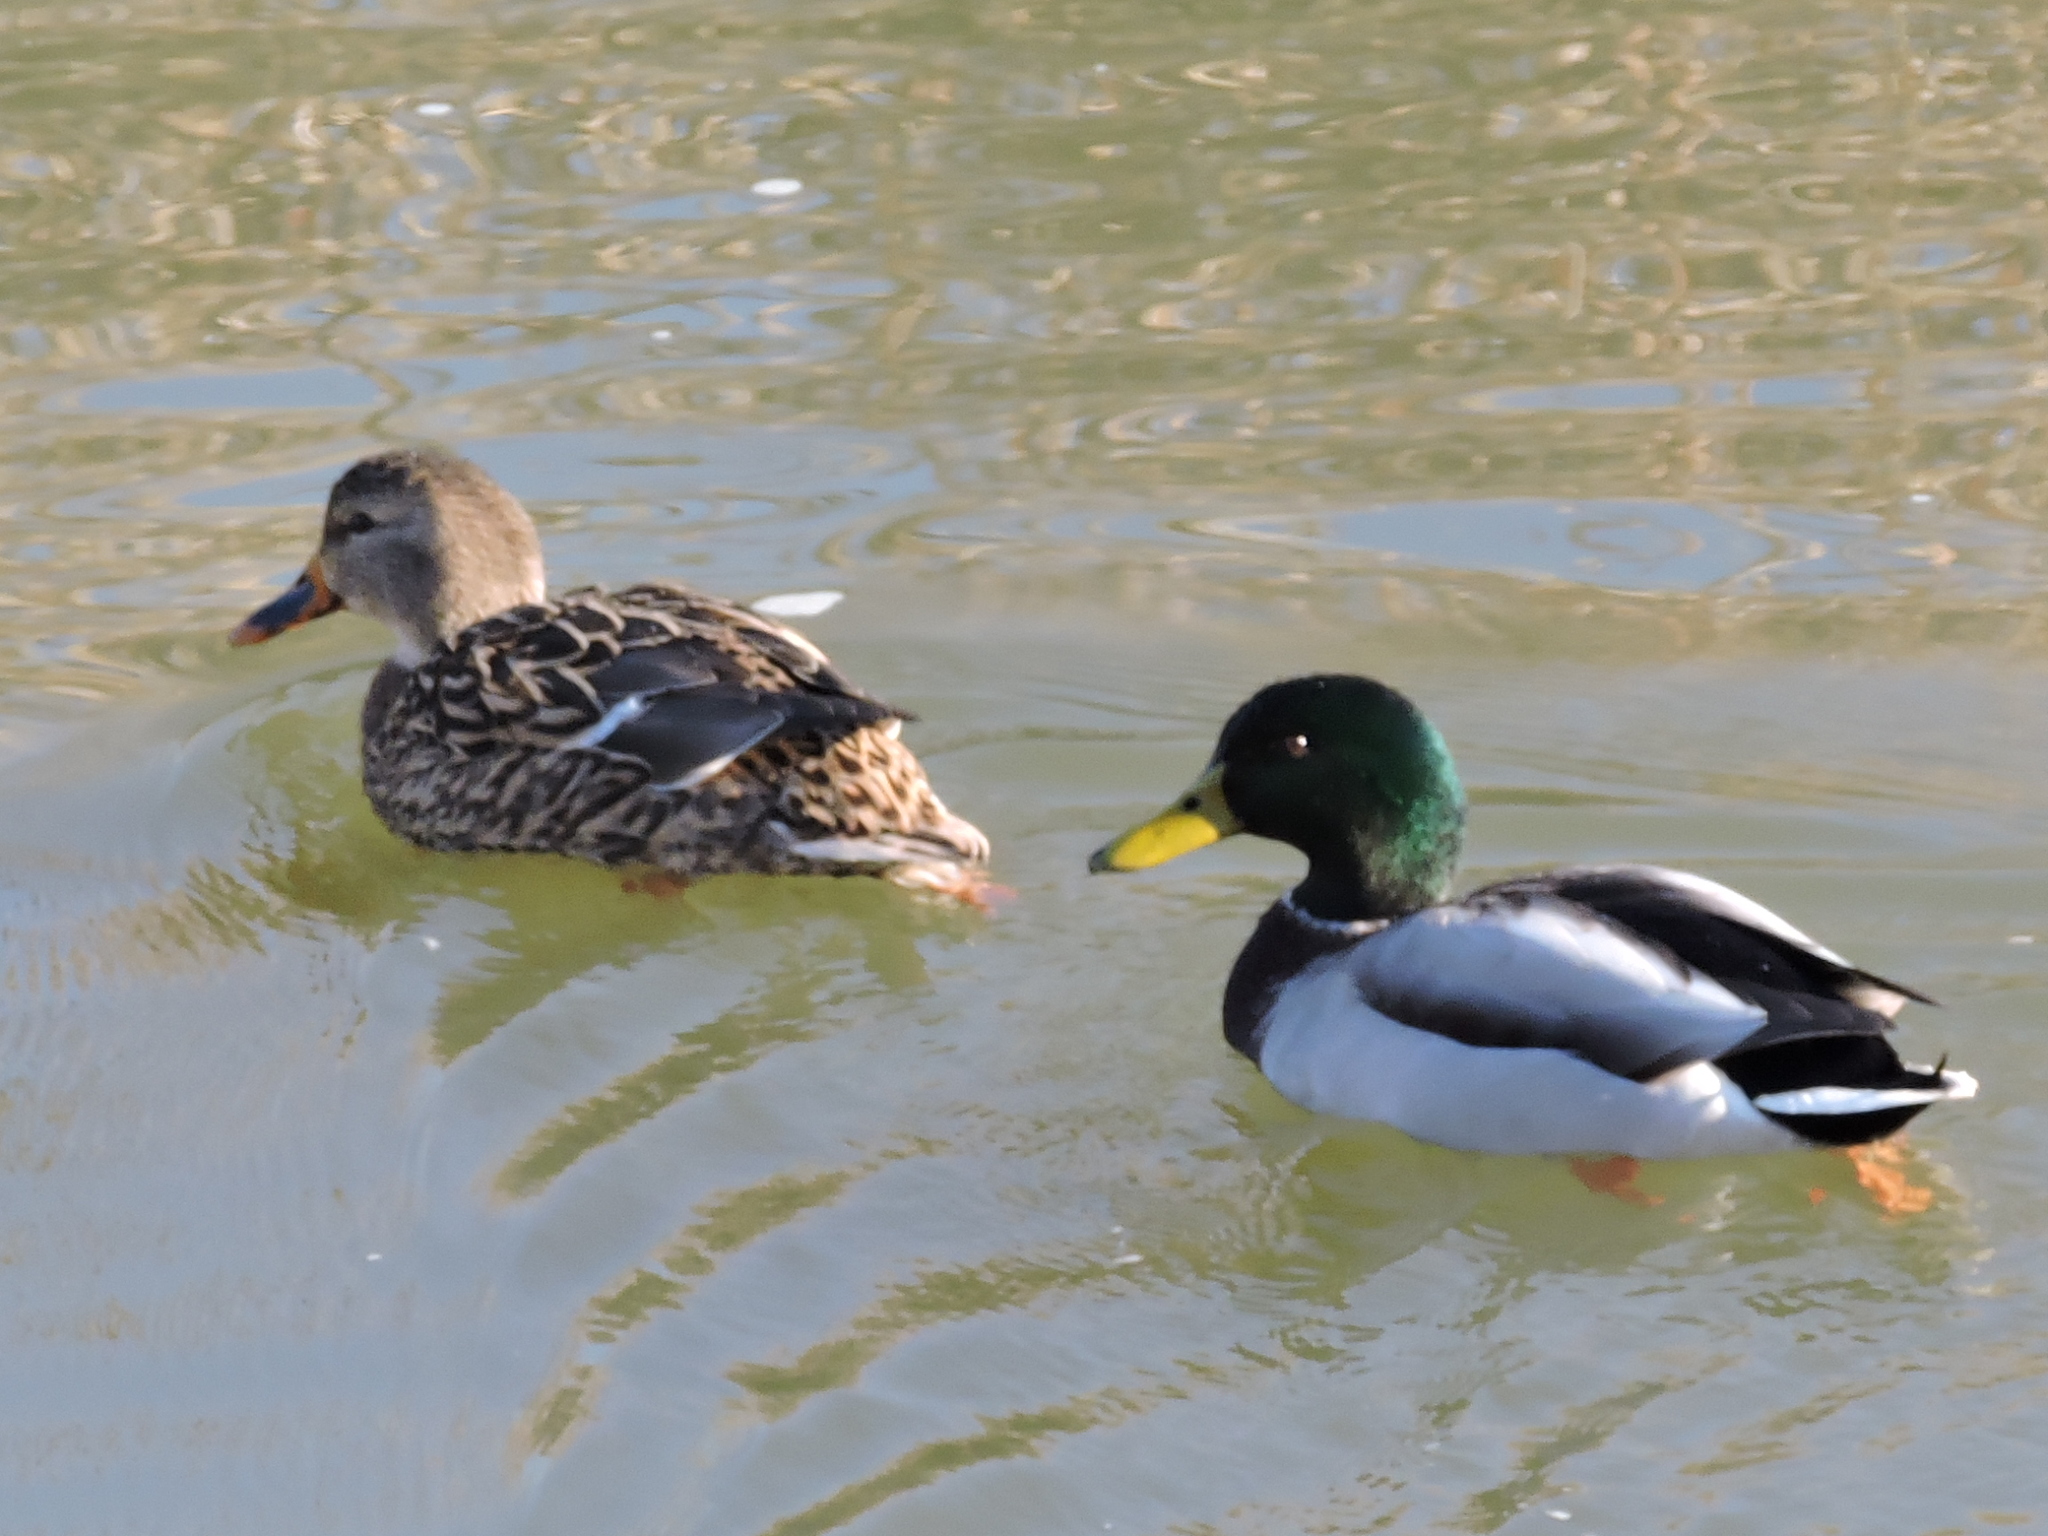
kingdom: Animalia
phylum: Chordata
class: Aves
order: Anseriformes
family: Anatidae
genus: Anas
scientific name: Anas platyrhynchos
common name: Mallard
